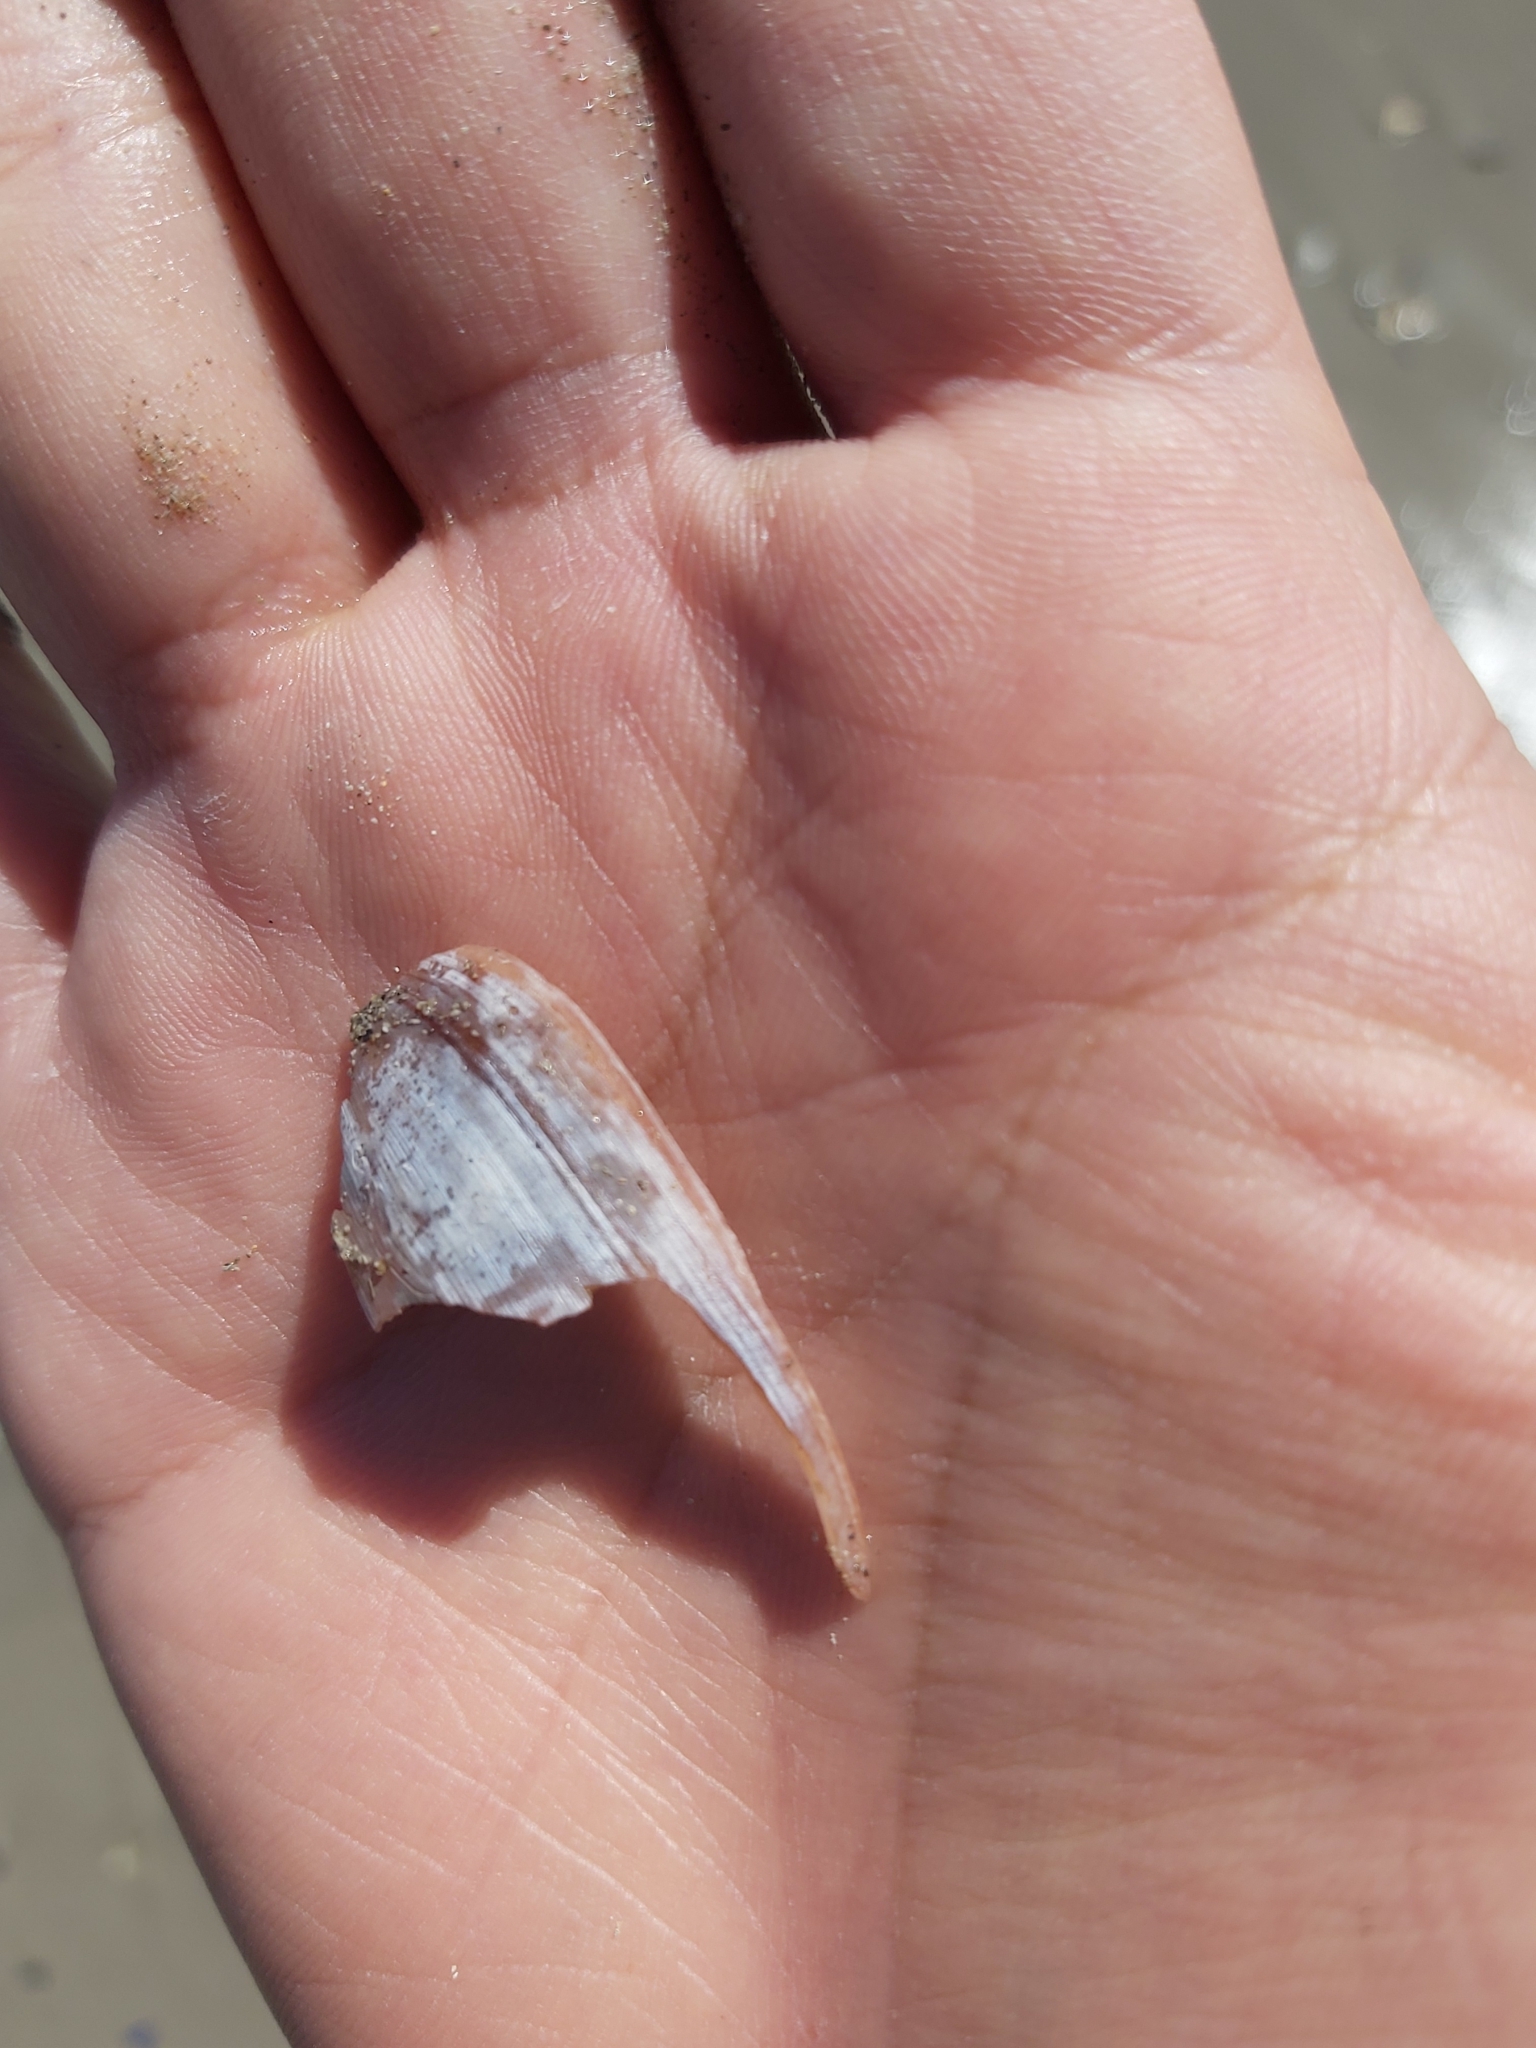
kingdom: Animalia
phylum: Mollusca
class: Gastropoda
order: Cephalaspidea
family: Bullidae
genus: Bulla
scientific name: Bulla quoyii
